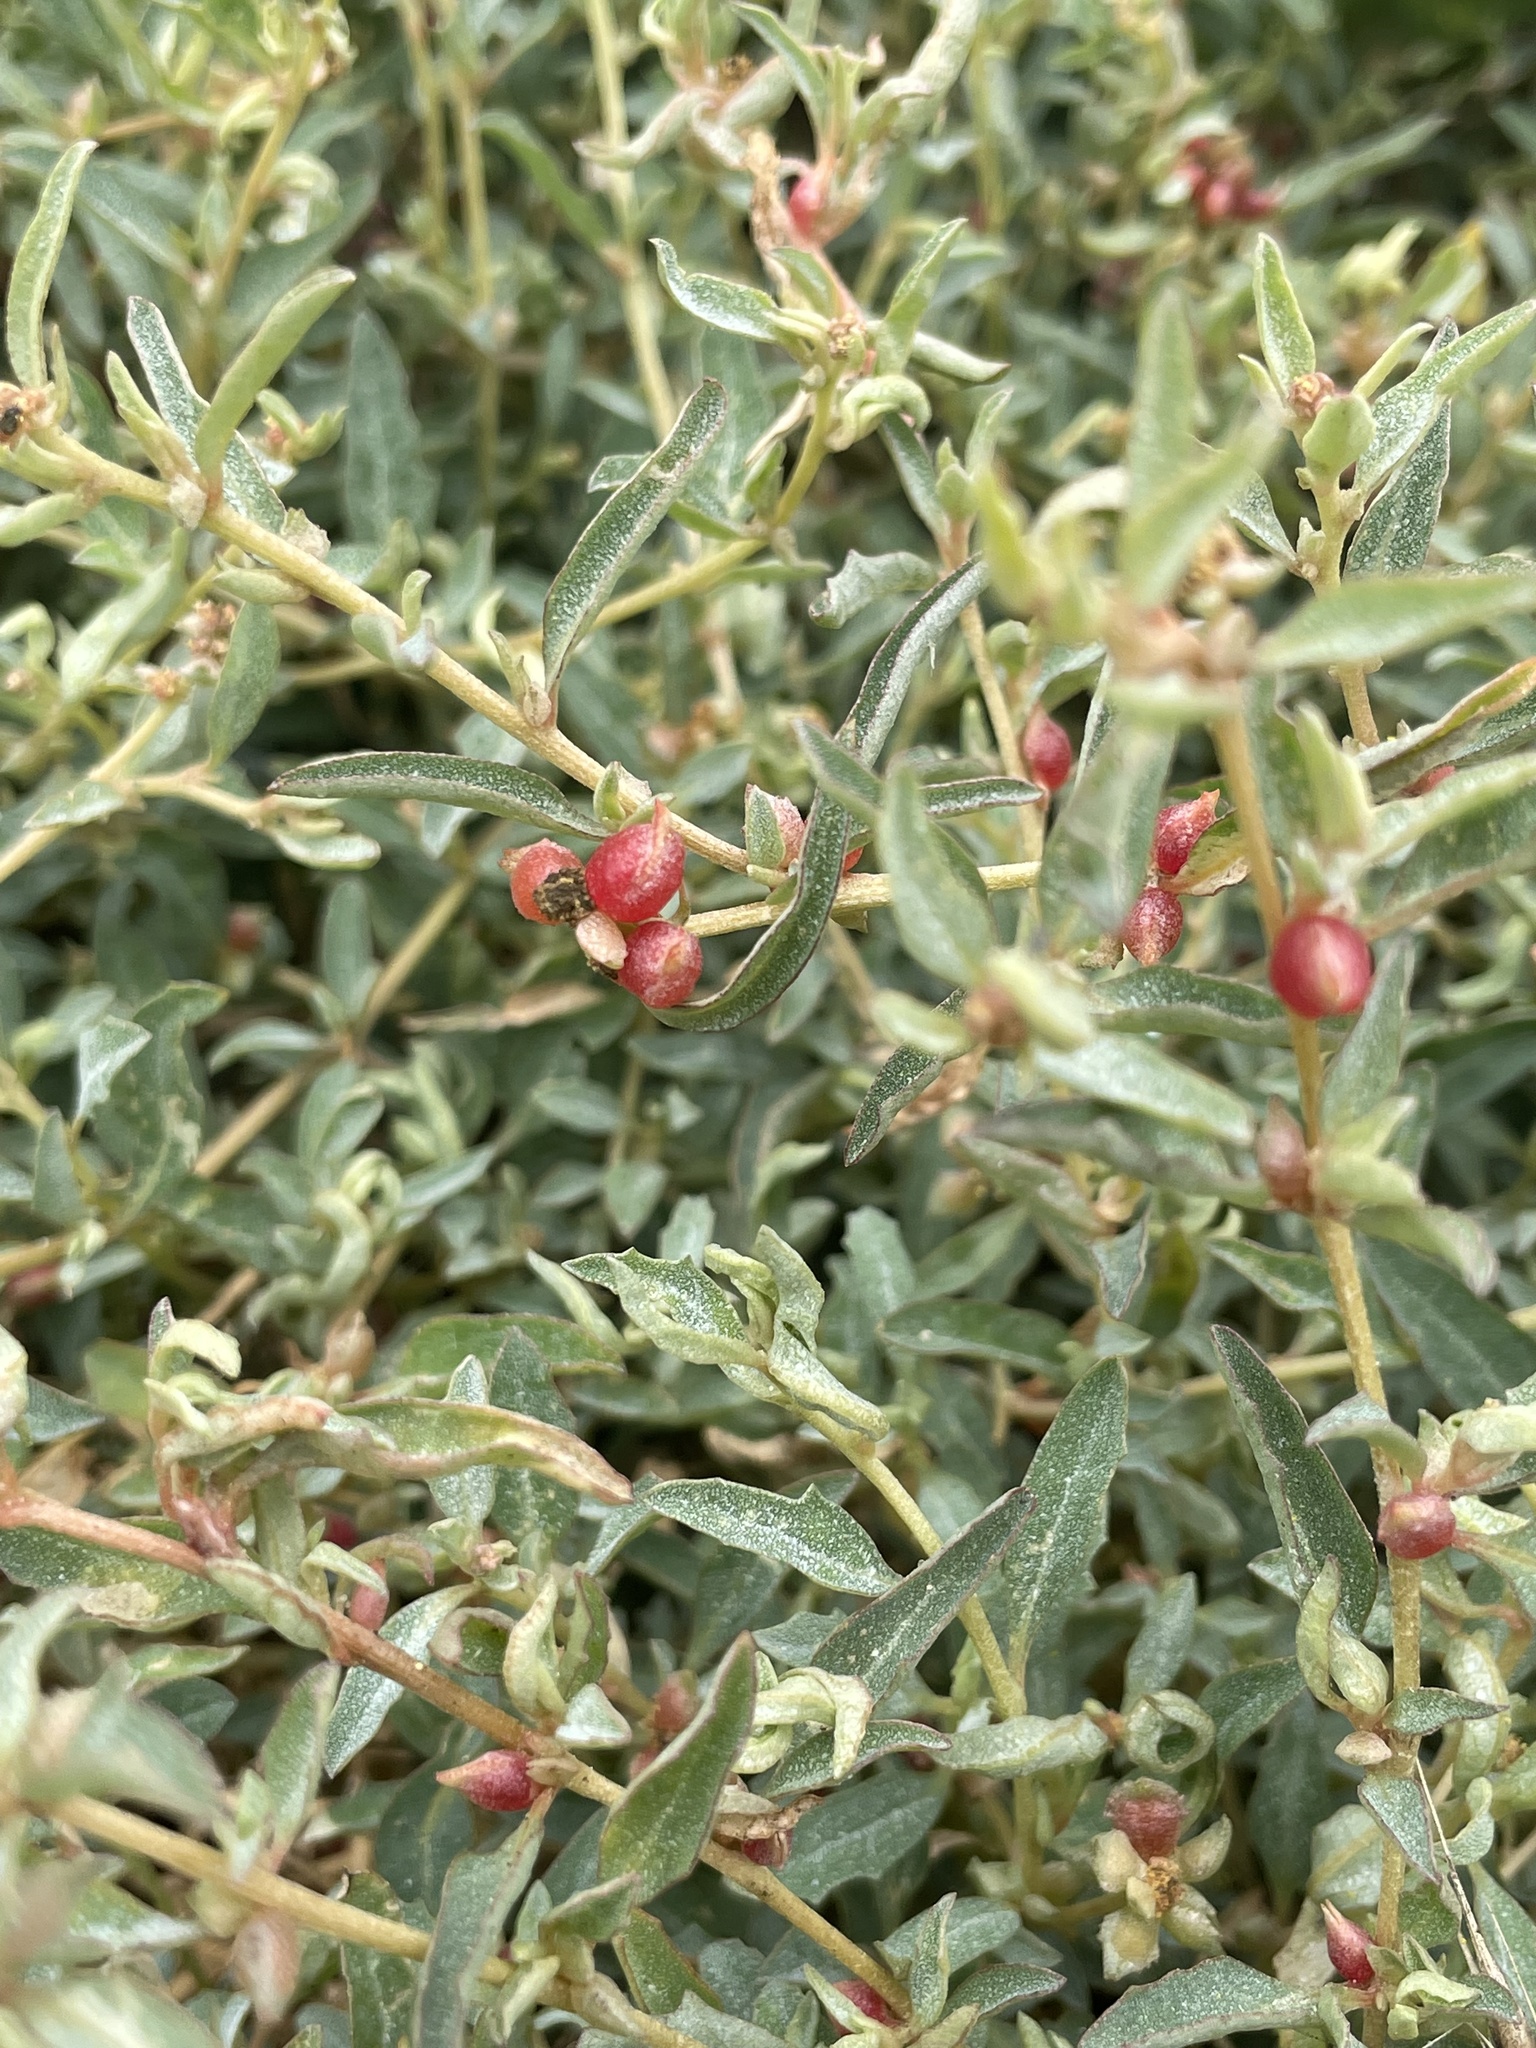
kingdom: Plantae
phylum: Tracheophyta
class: Magnoliopsida
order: Caryophyllales
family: Amaranthaceae
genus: Atriplex
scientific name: Atriplex semibaccata
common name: Australian saltbush
